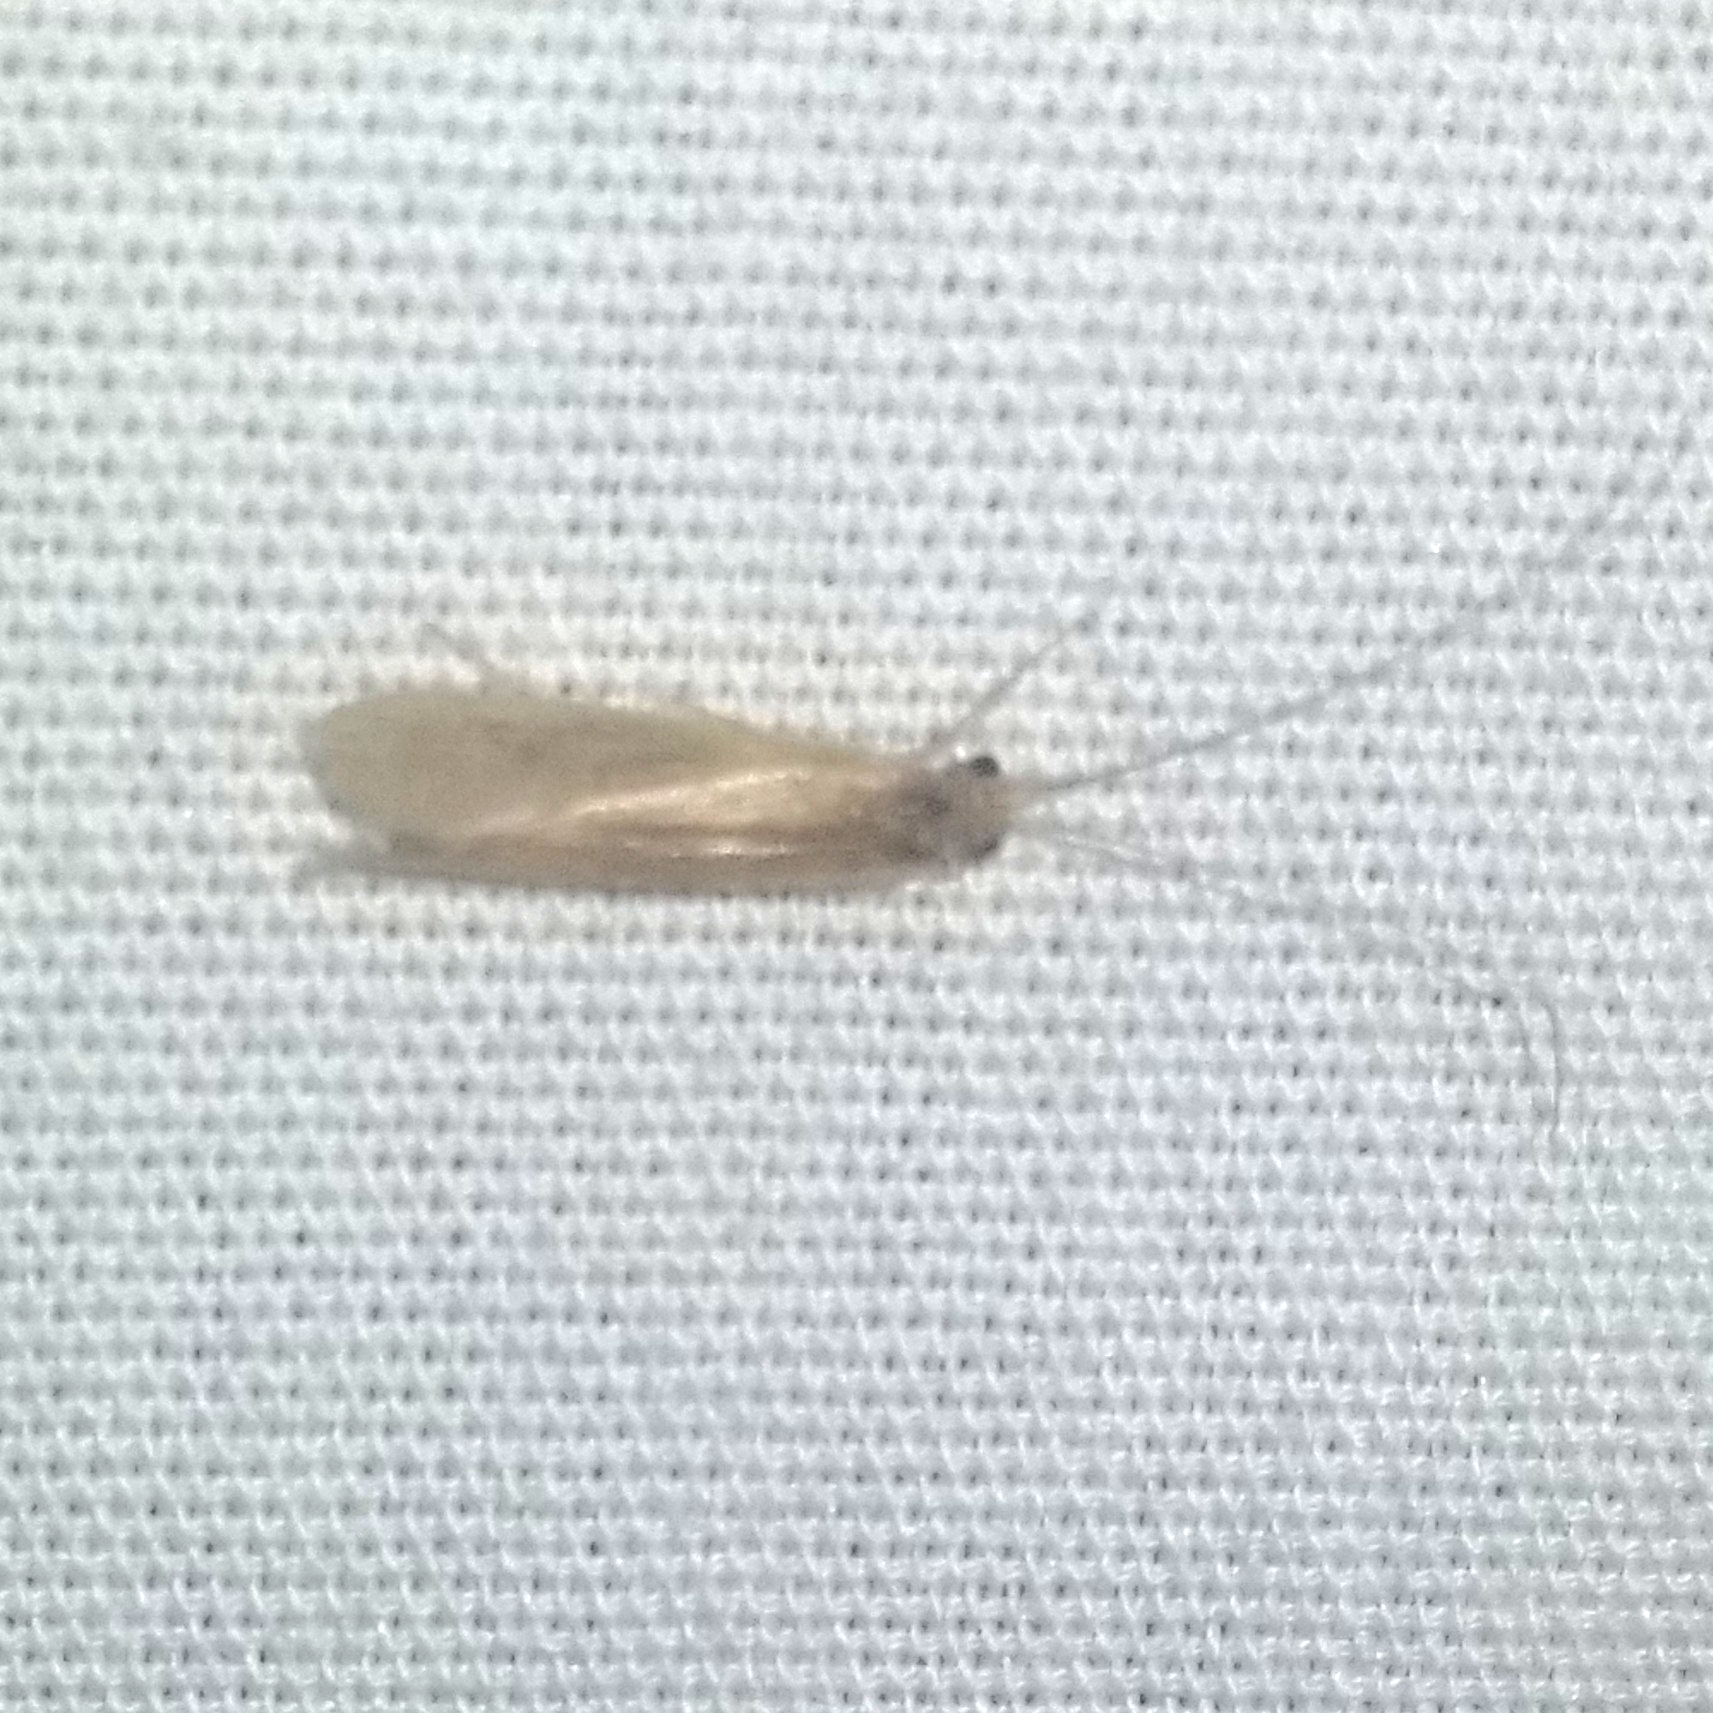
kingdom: Animalia
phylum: Arthropoda
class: Insecta
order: Trichoptera
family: Hydropsychidae
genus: Potamyia
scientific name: Potamyia flava
